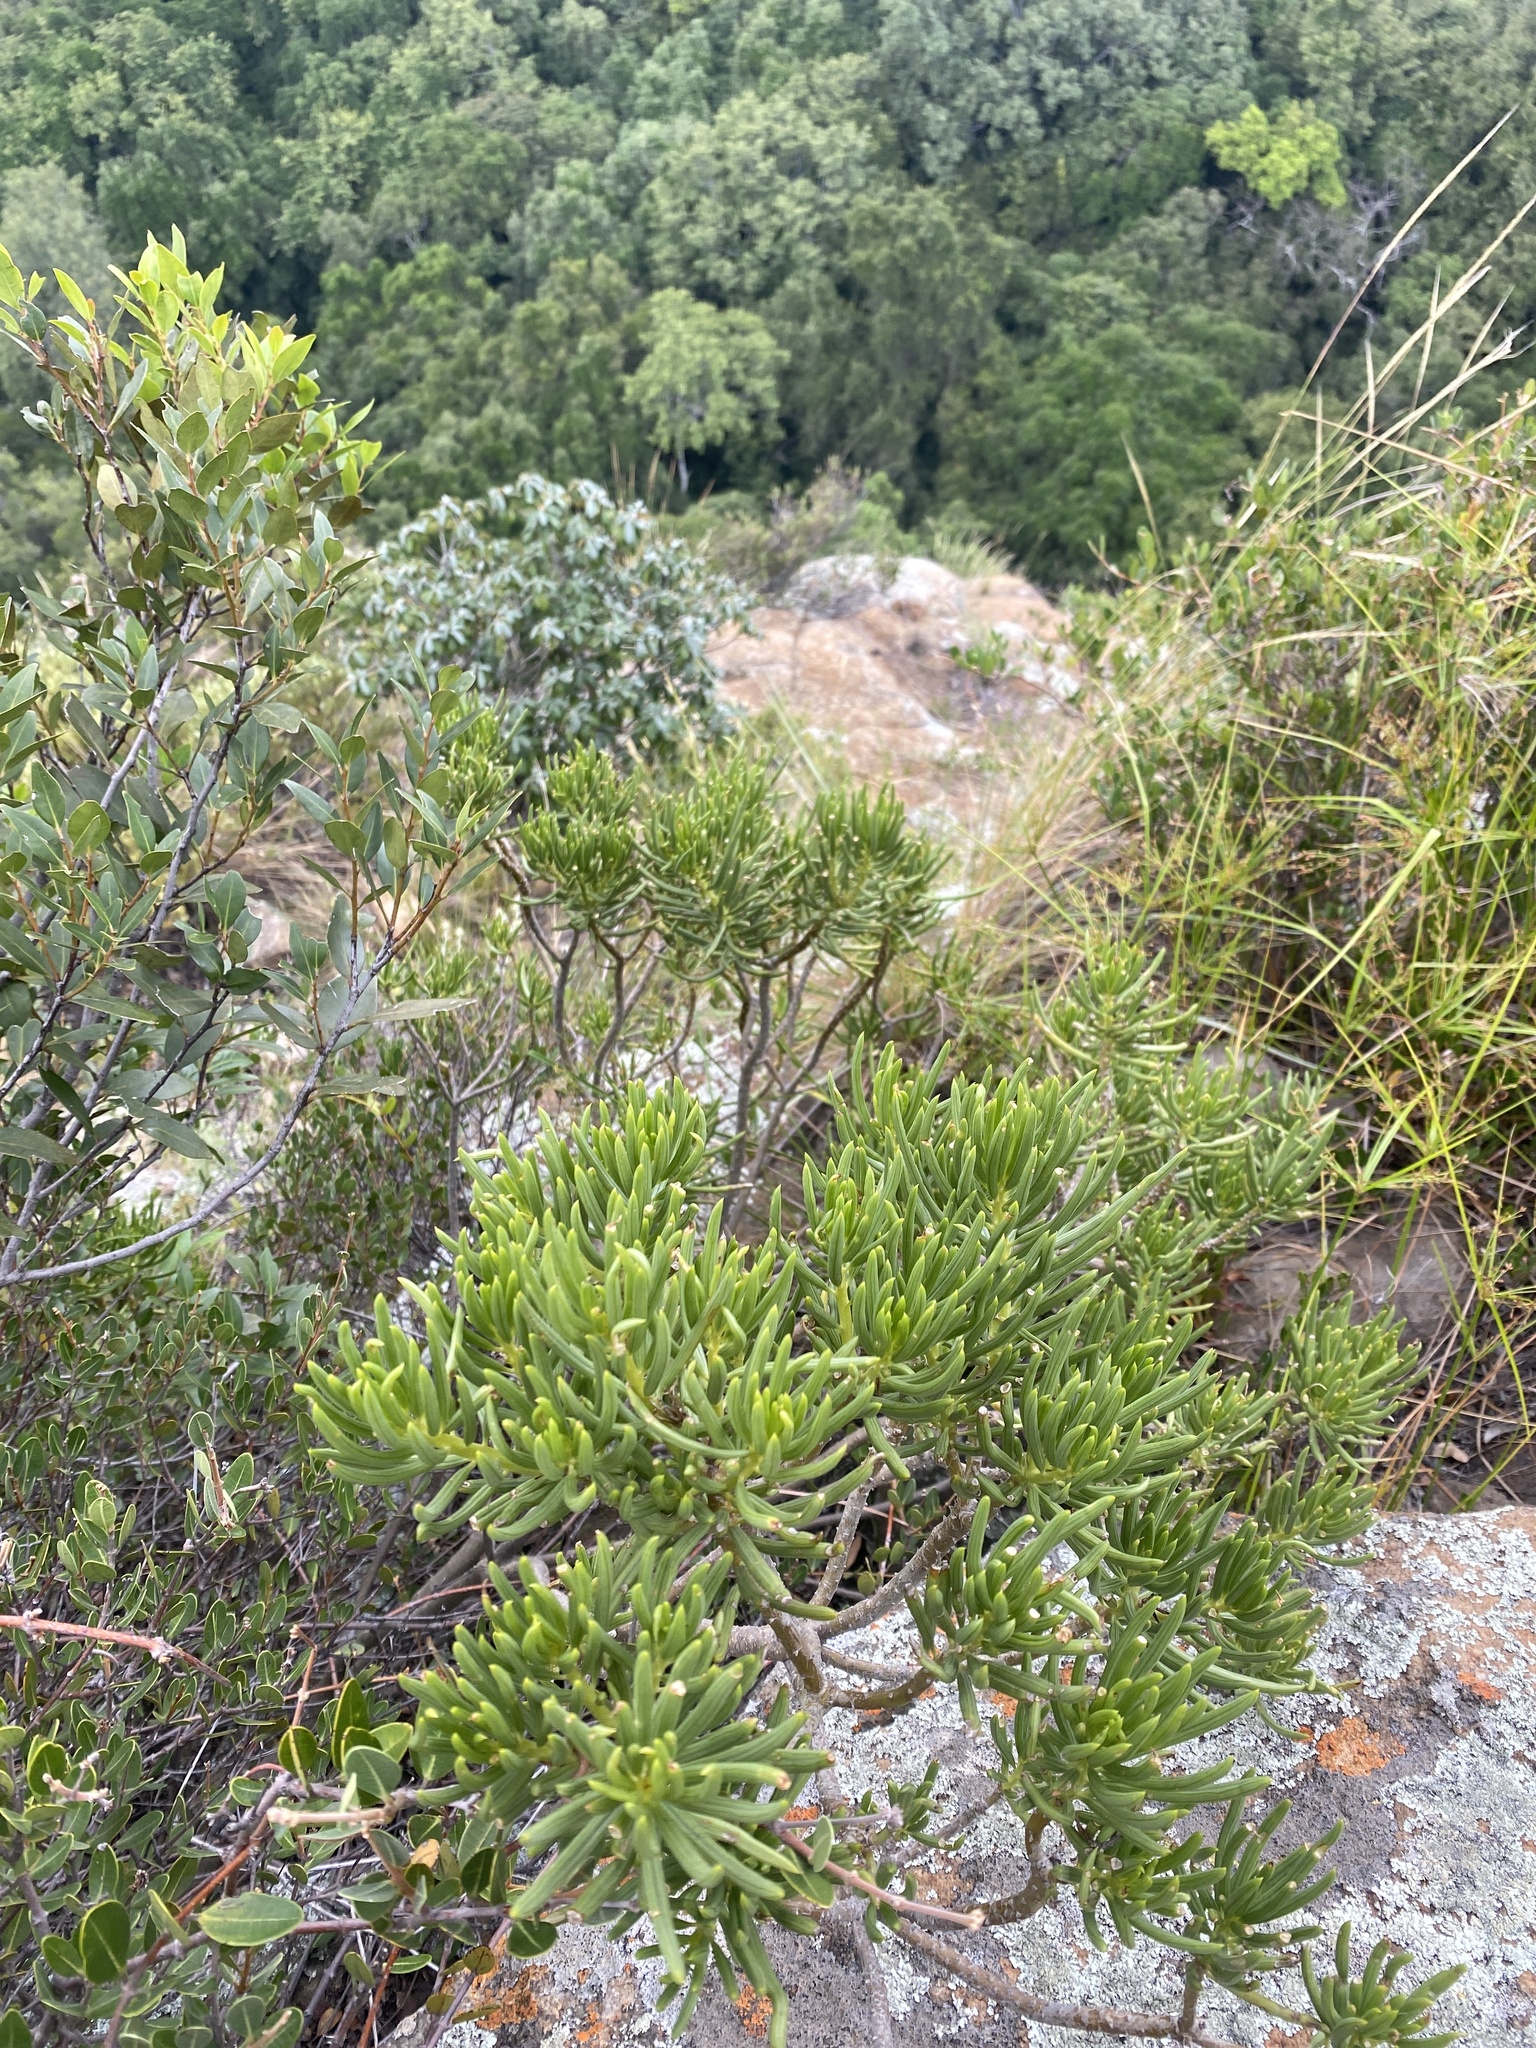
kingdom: Plantae
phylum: Tracheophyta
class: Magnoliopsida
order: Asterales
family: Asteraceae
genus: Kleinia
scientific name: Kleinia barbertonica
